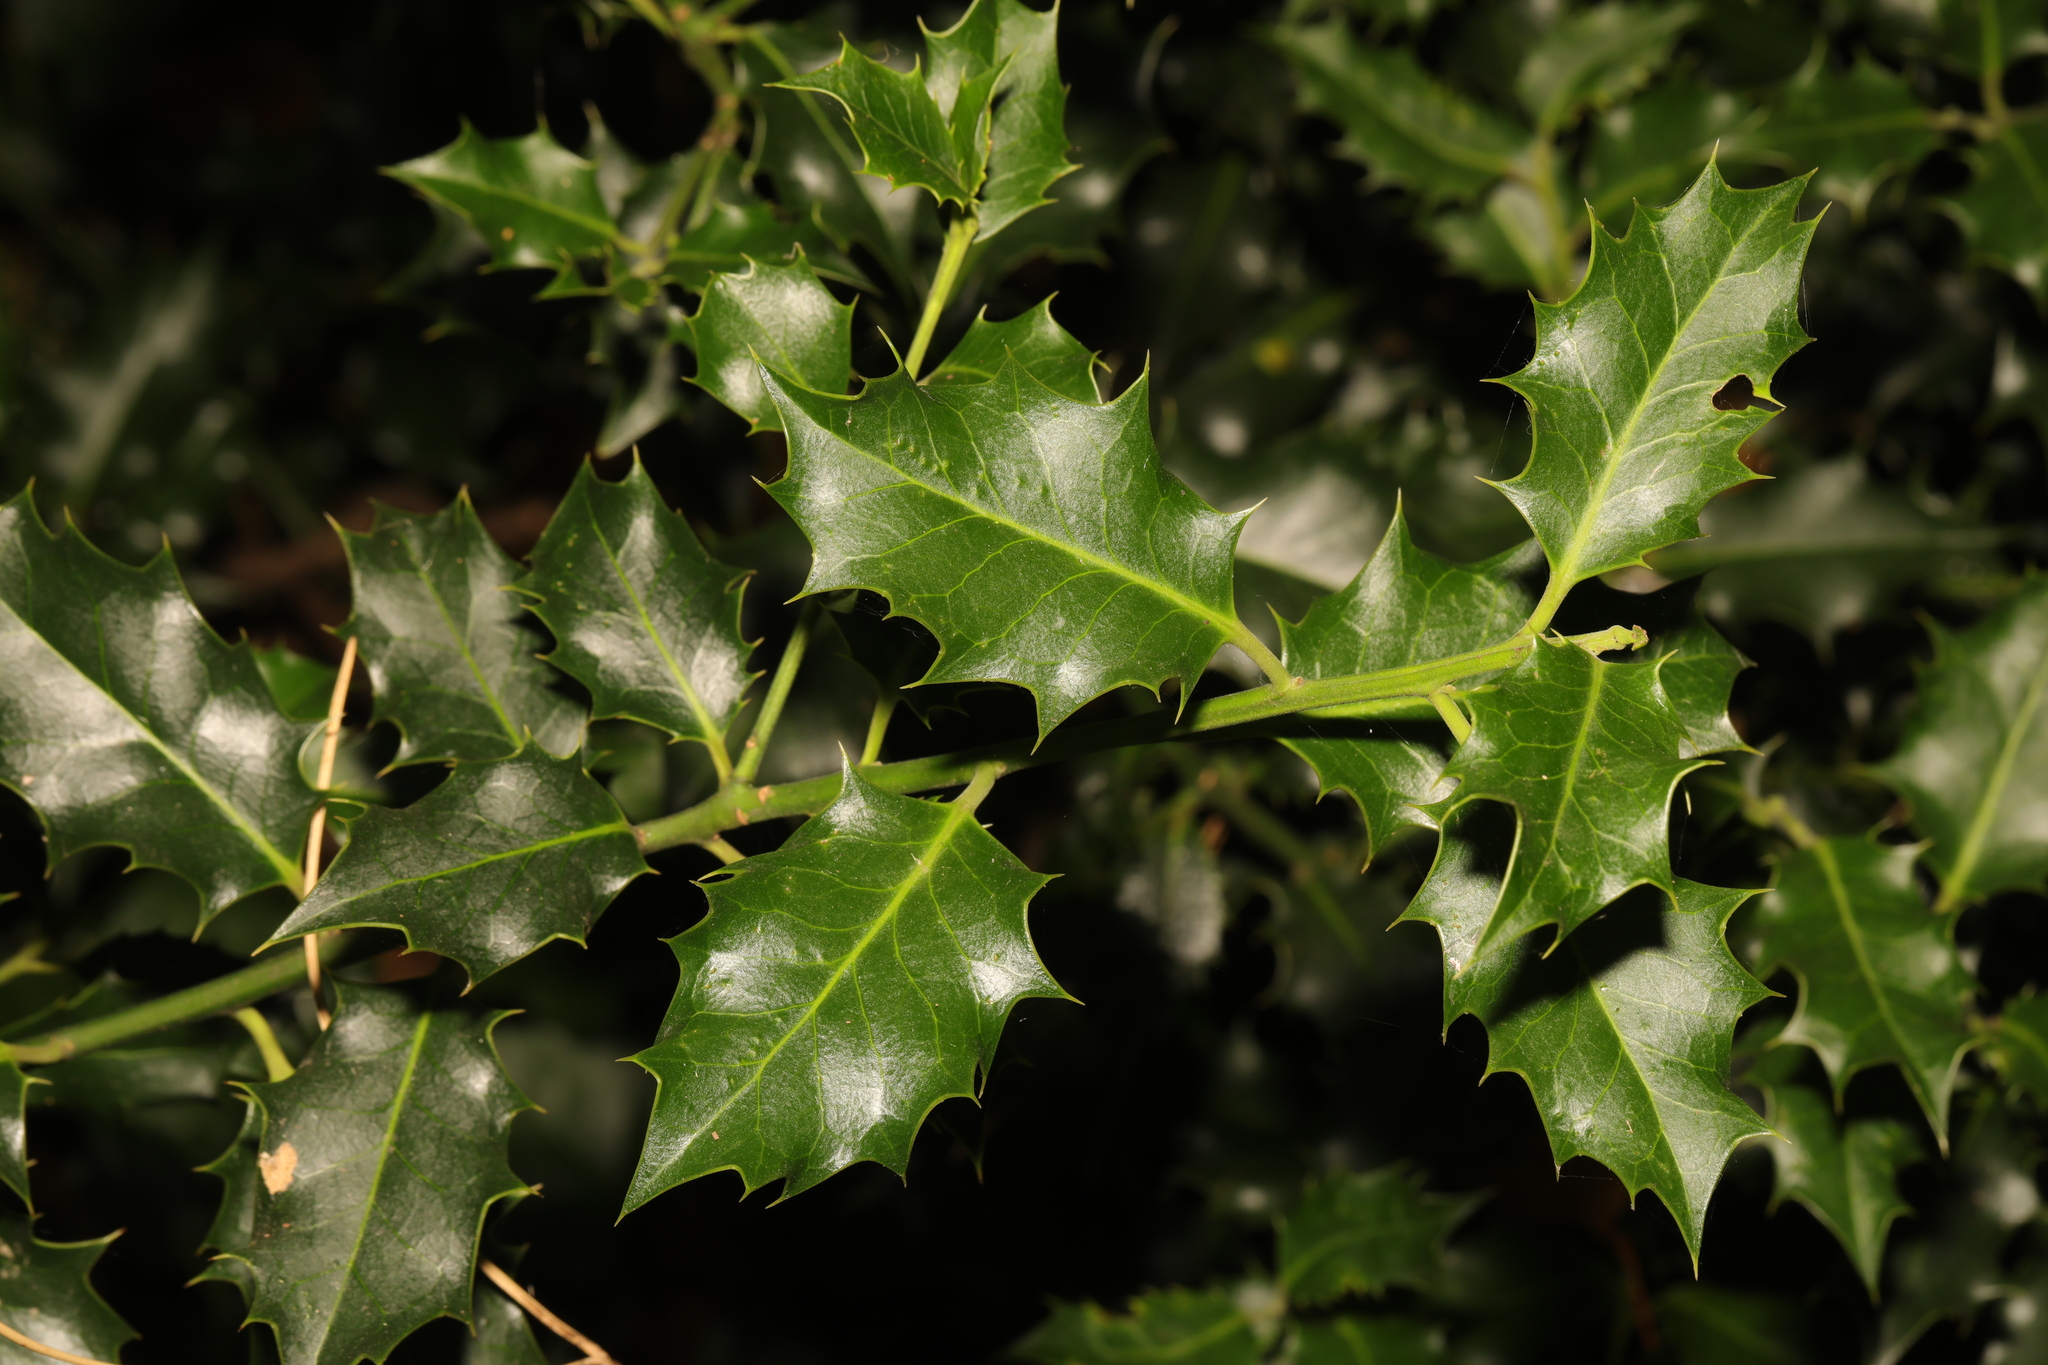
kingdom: Plantae
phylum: Tracheophyta
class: Magnoliopsida
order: Aquifoliales
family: Aquifoliaceae
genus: Ilex
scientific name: Ilex aquifolium
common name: English holly
